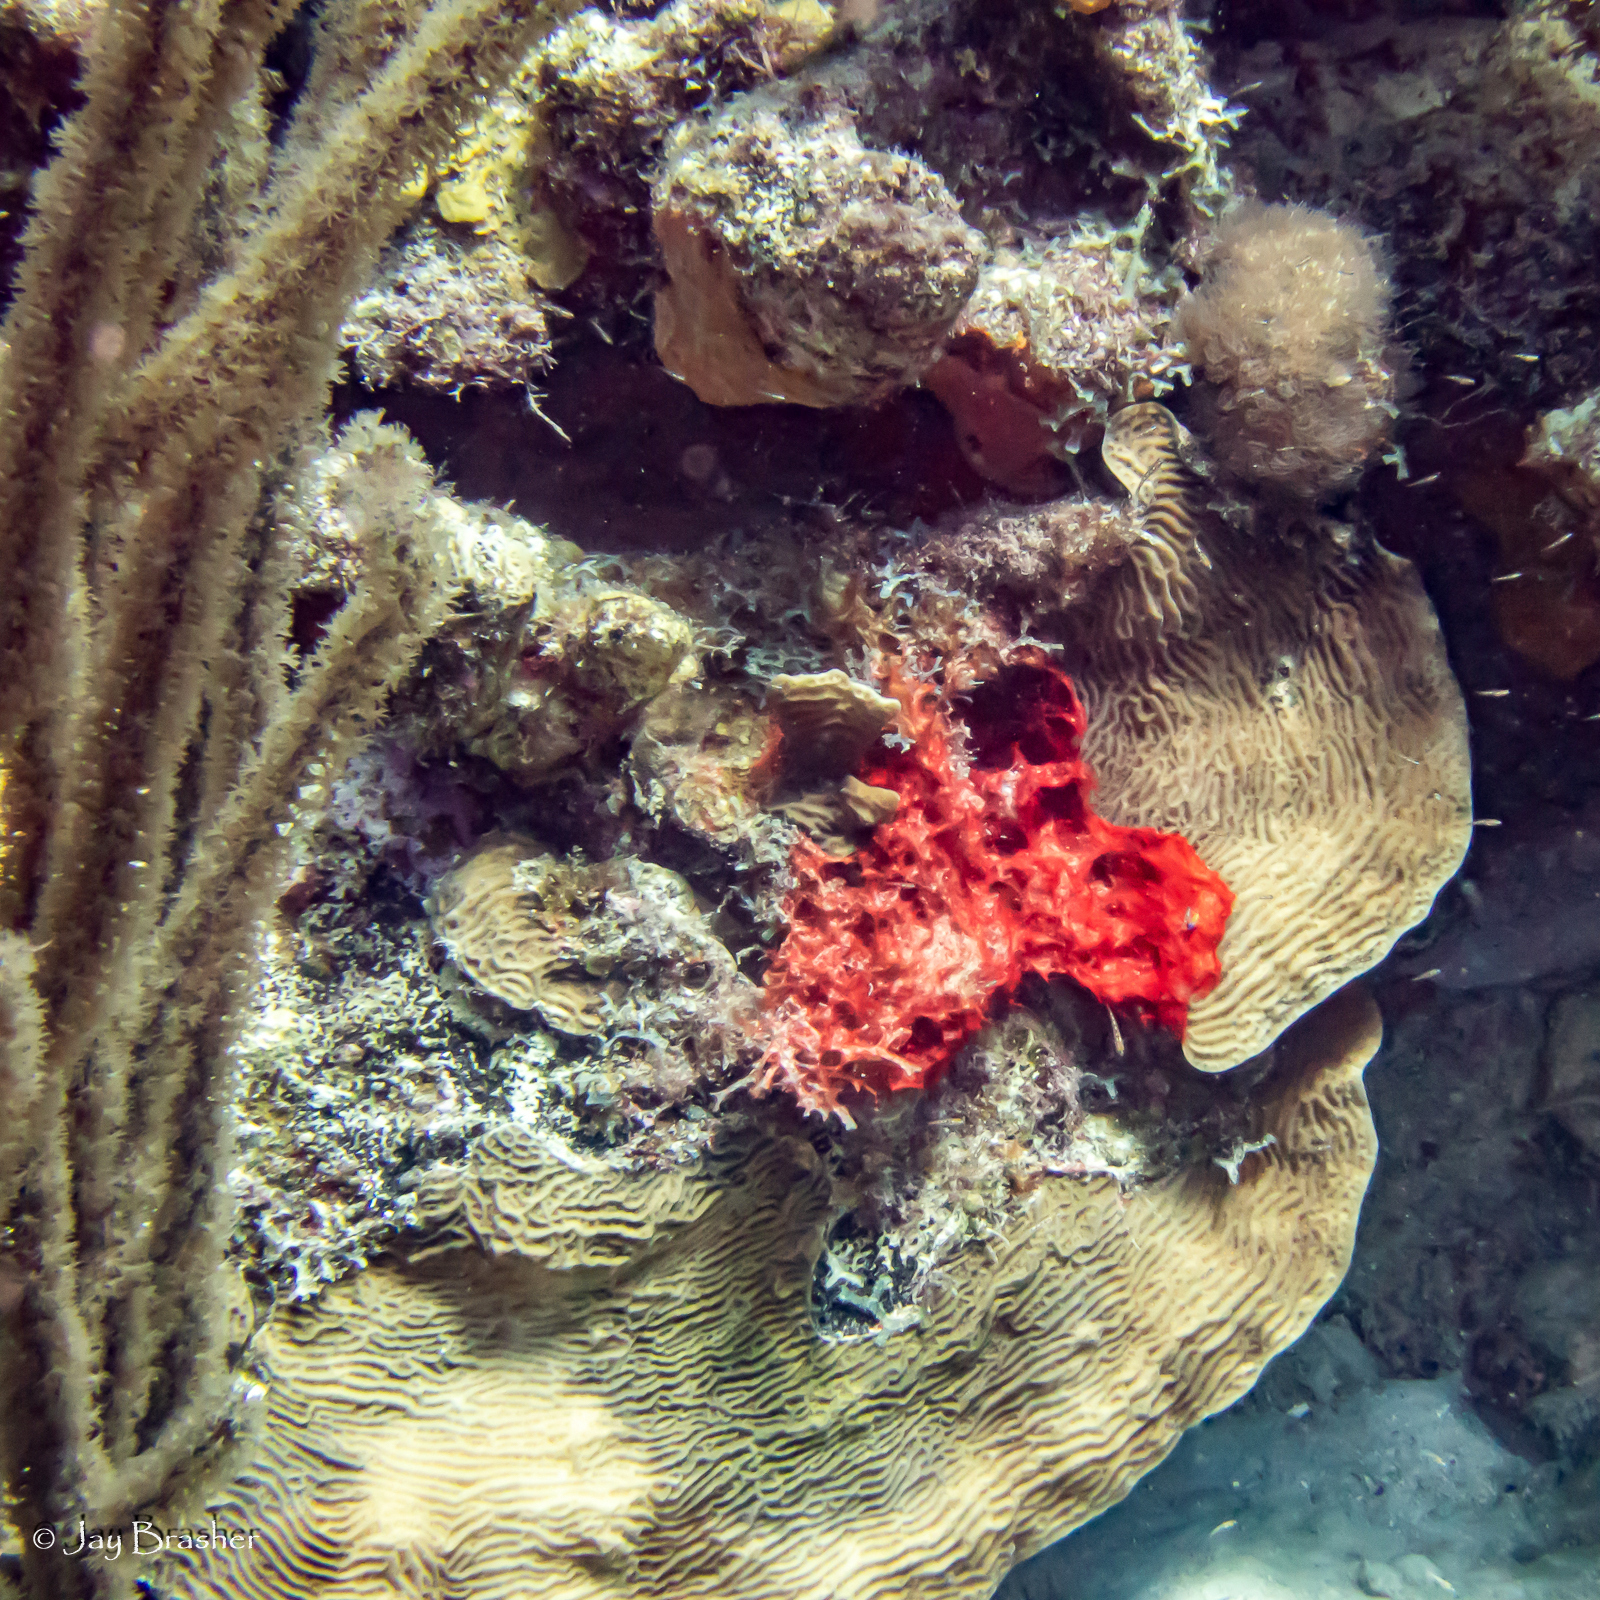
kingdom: Animalia
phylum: Cnidaria
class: Anthozoa
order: Scleractinia
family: Agariciidae
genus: Agaricia
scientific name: Agaricia agaricites
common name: Lettuce coral
